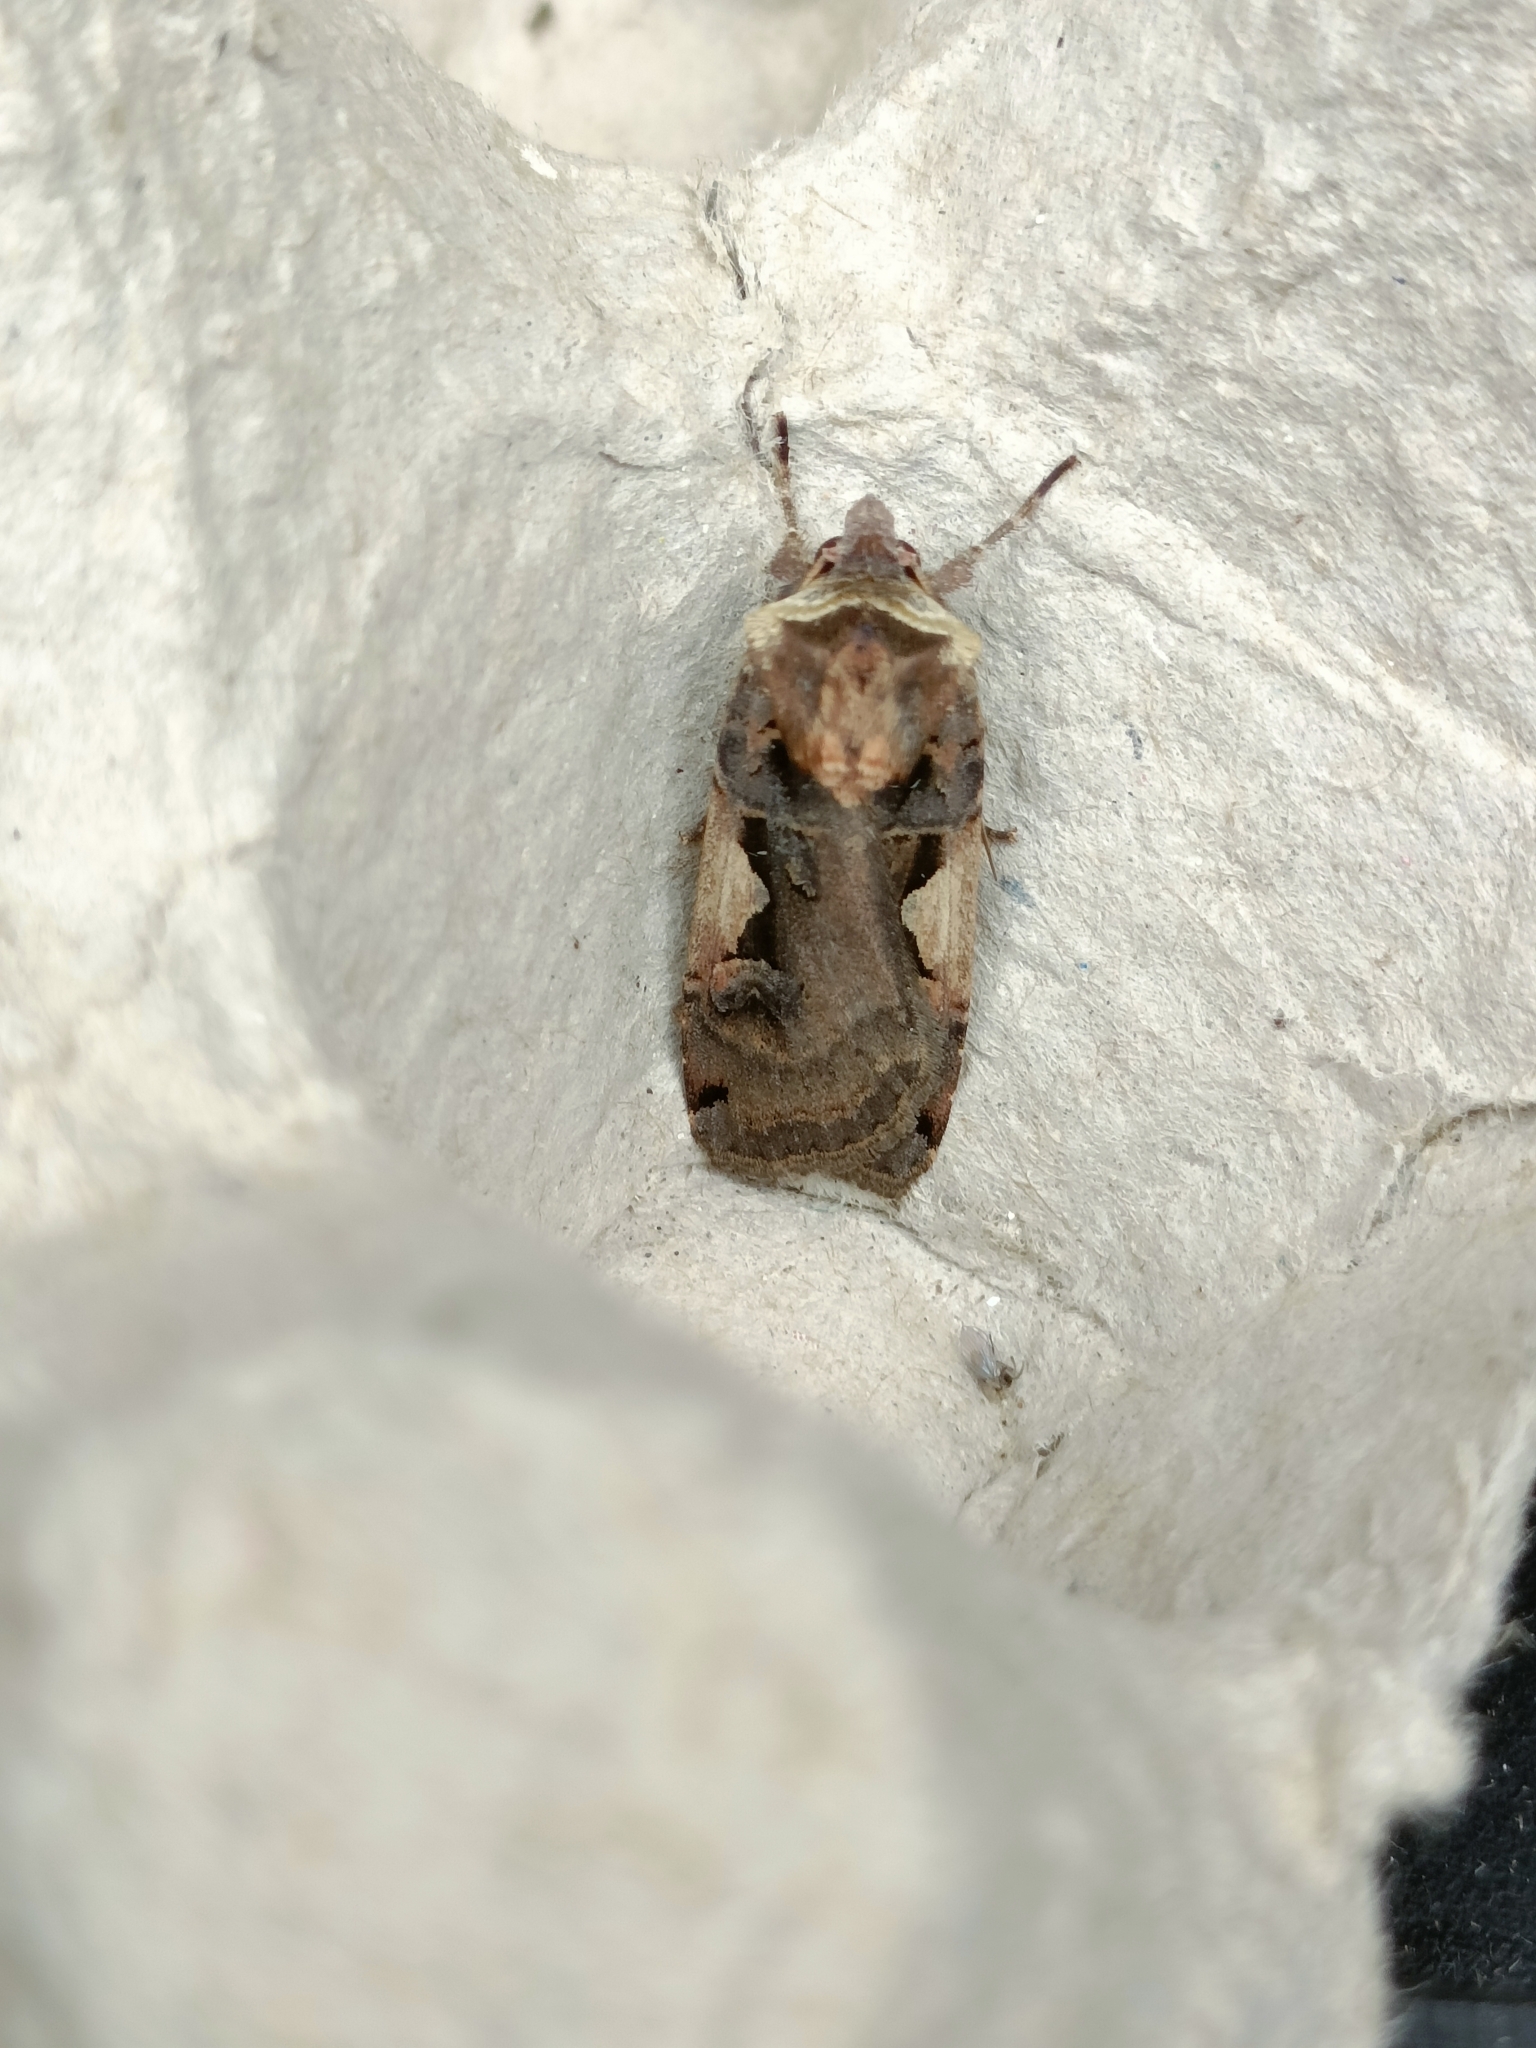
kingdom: Animalia
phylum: Arthropoda
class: Insecta
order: Lepidoptera
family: Noctuidae
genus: Xestia
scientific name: Xestia c-nigrum
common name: Setaceous hebrew character
